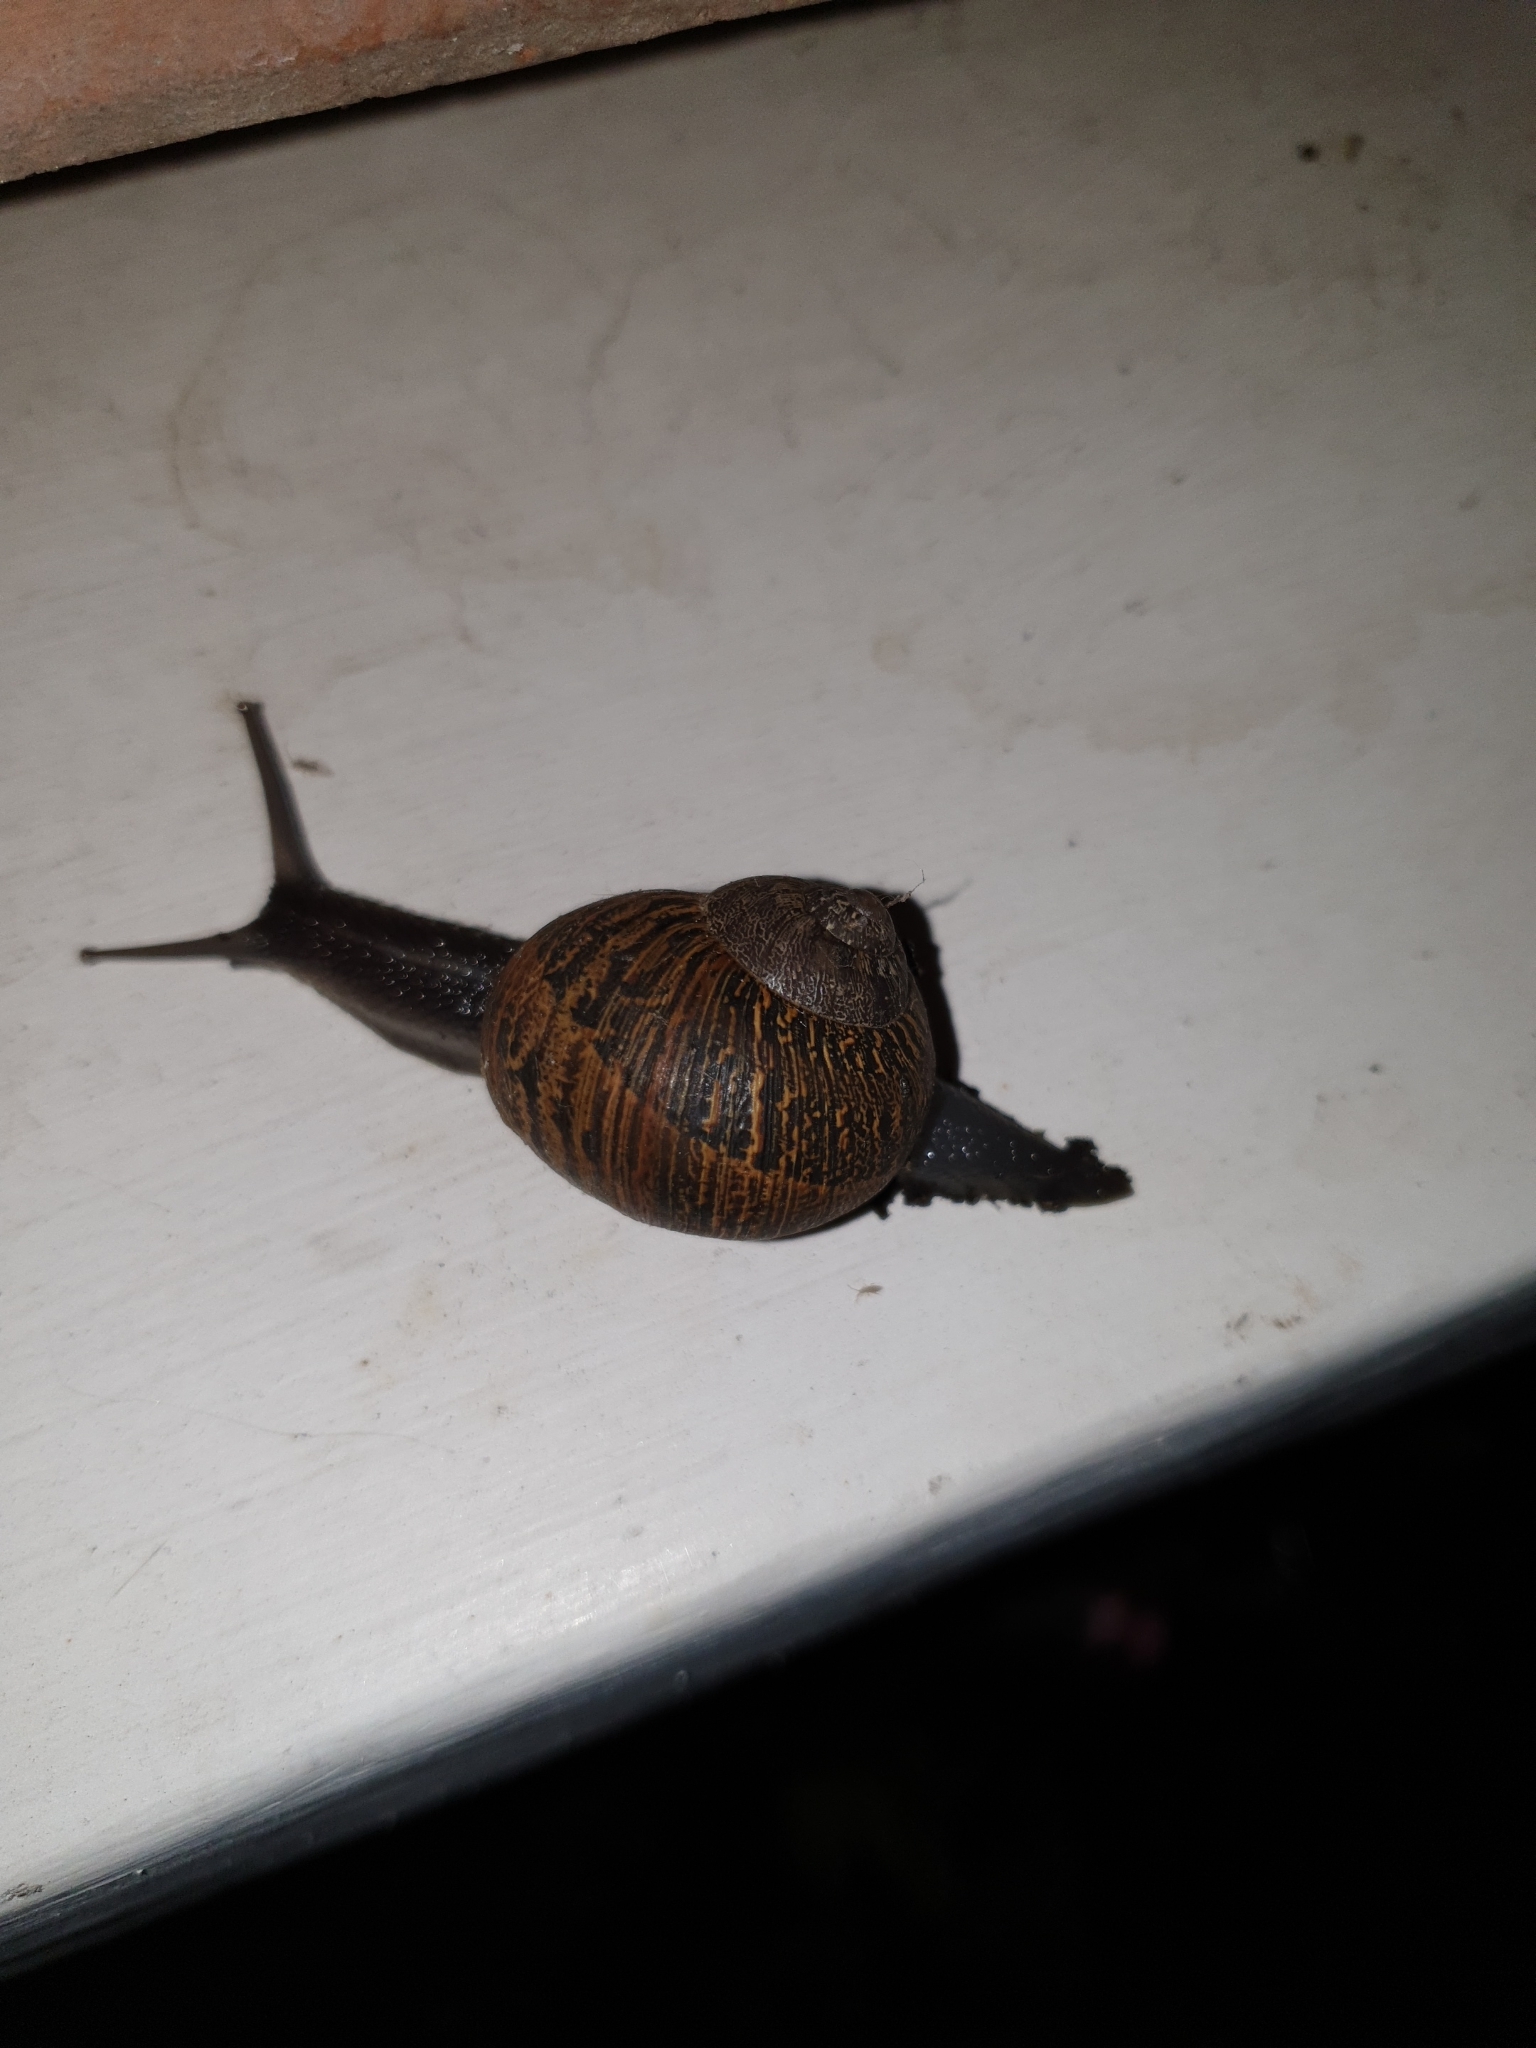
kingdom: Animalia
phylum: Mollusca
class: Gastropoda
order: Stylommatophora
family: Helicidae
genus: Cornu
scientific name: Cornu aspersum
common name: Brown garden snail
